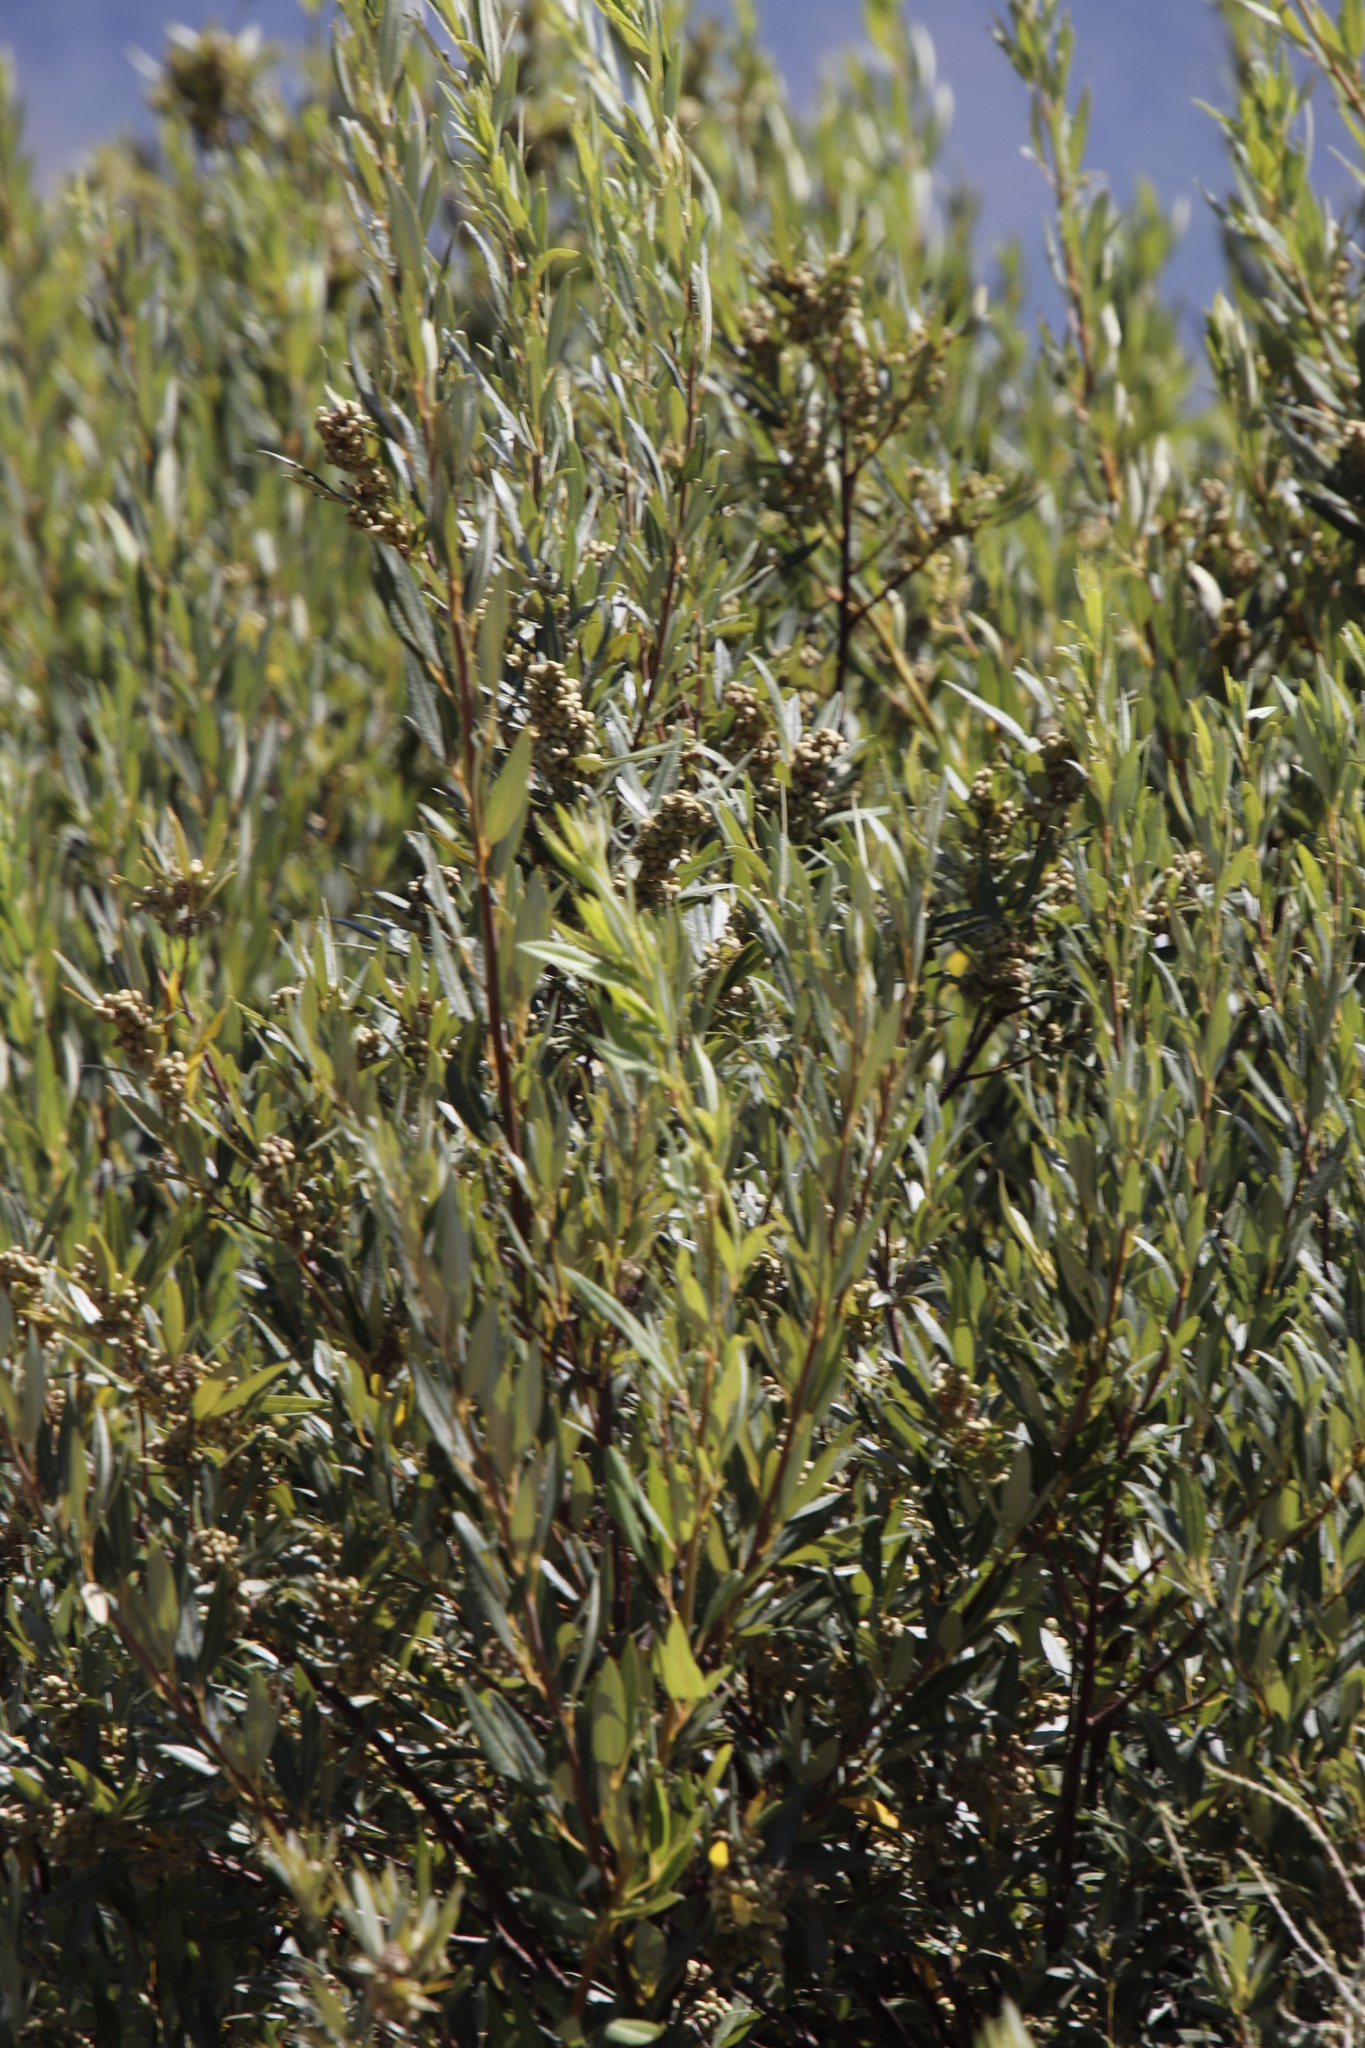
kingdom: Plantae
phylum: Tracheophyta
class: Magnoliopsida
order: Sapindales
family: Anacardiaceae
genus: Searsia
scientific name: Searsia angustifolia
